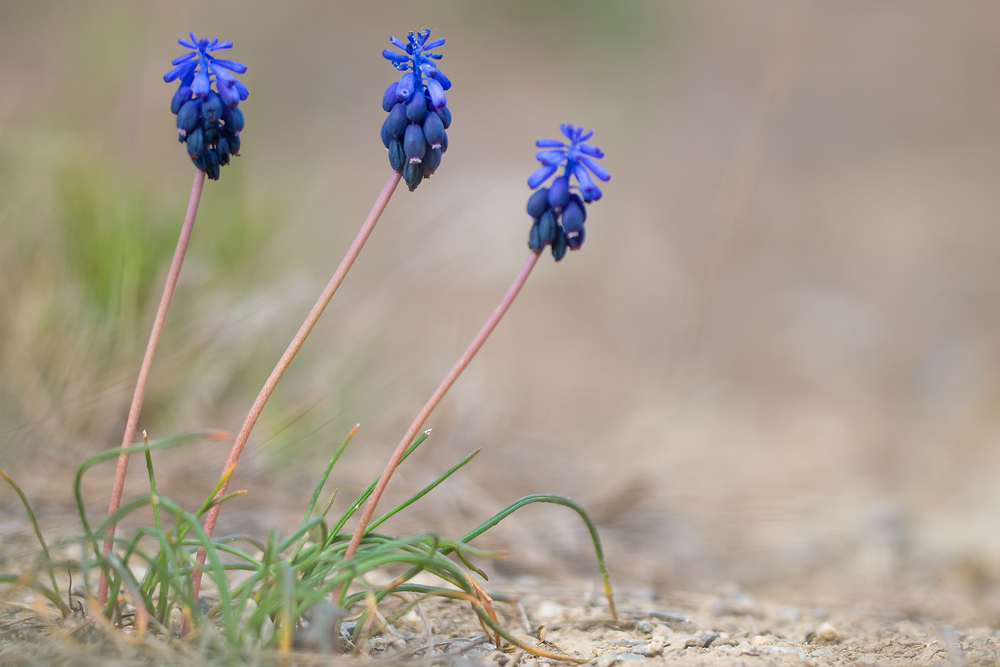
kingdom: Plantae
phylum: Tracheophyta
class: Liliopsida
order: Asparagales
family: Asparagaceae
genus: Muscari
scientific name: Muscari neglectum
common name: Grape-hyacinth
